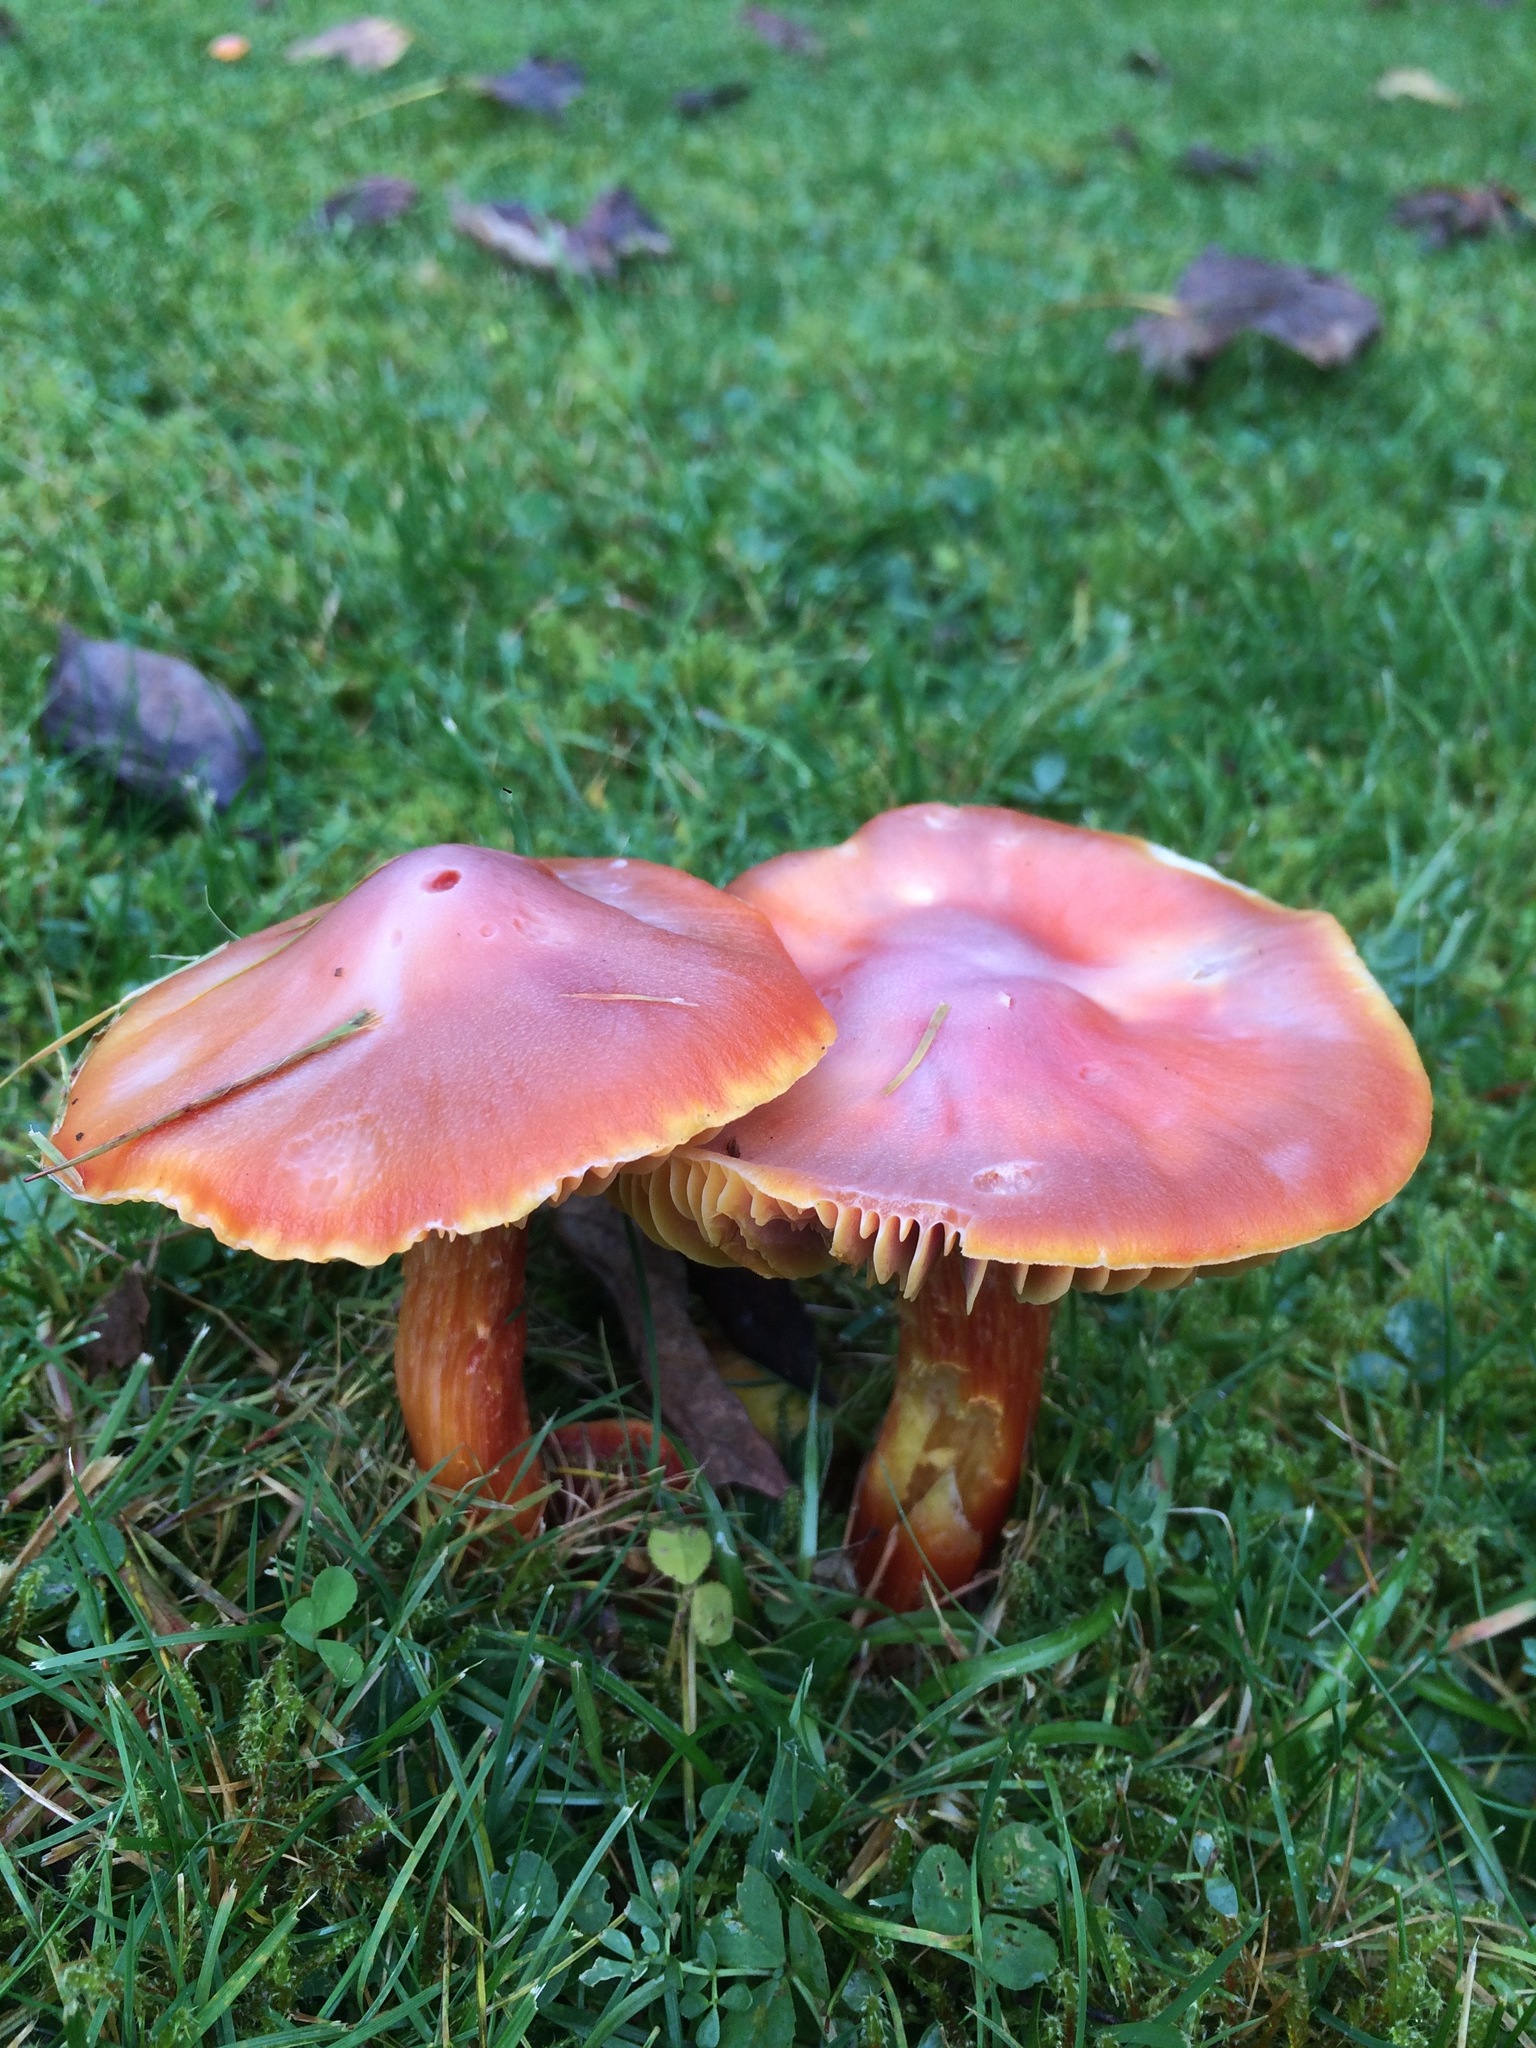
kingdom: Fungi
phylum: Basidiomycota
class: Agaricomycetes
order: Agaricales
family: Hygrophoraceae
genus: Hygrocybe
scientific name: Hygrocybe punicea
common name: Crimson waxcap
